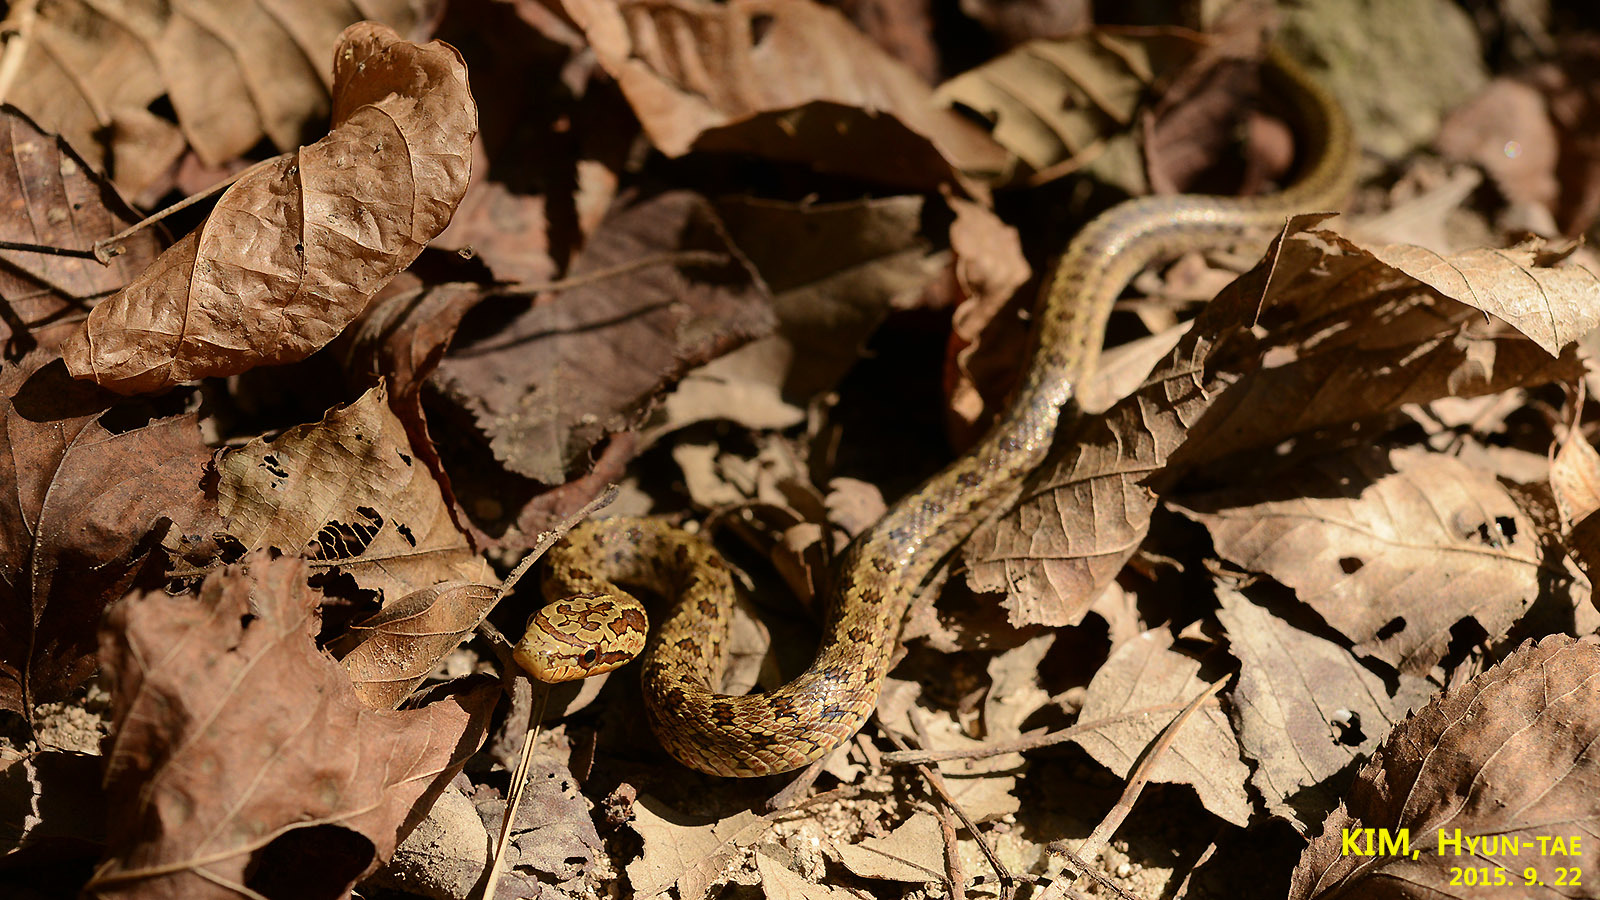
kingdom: Animalia
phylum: Chordata
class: Squamata
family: Colubridae
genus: Elaphe
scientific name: Elaphe dione
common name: Dione ratsnake
